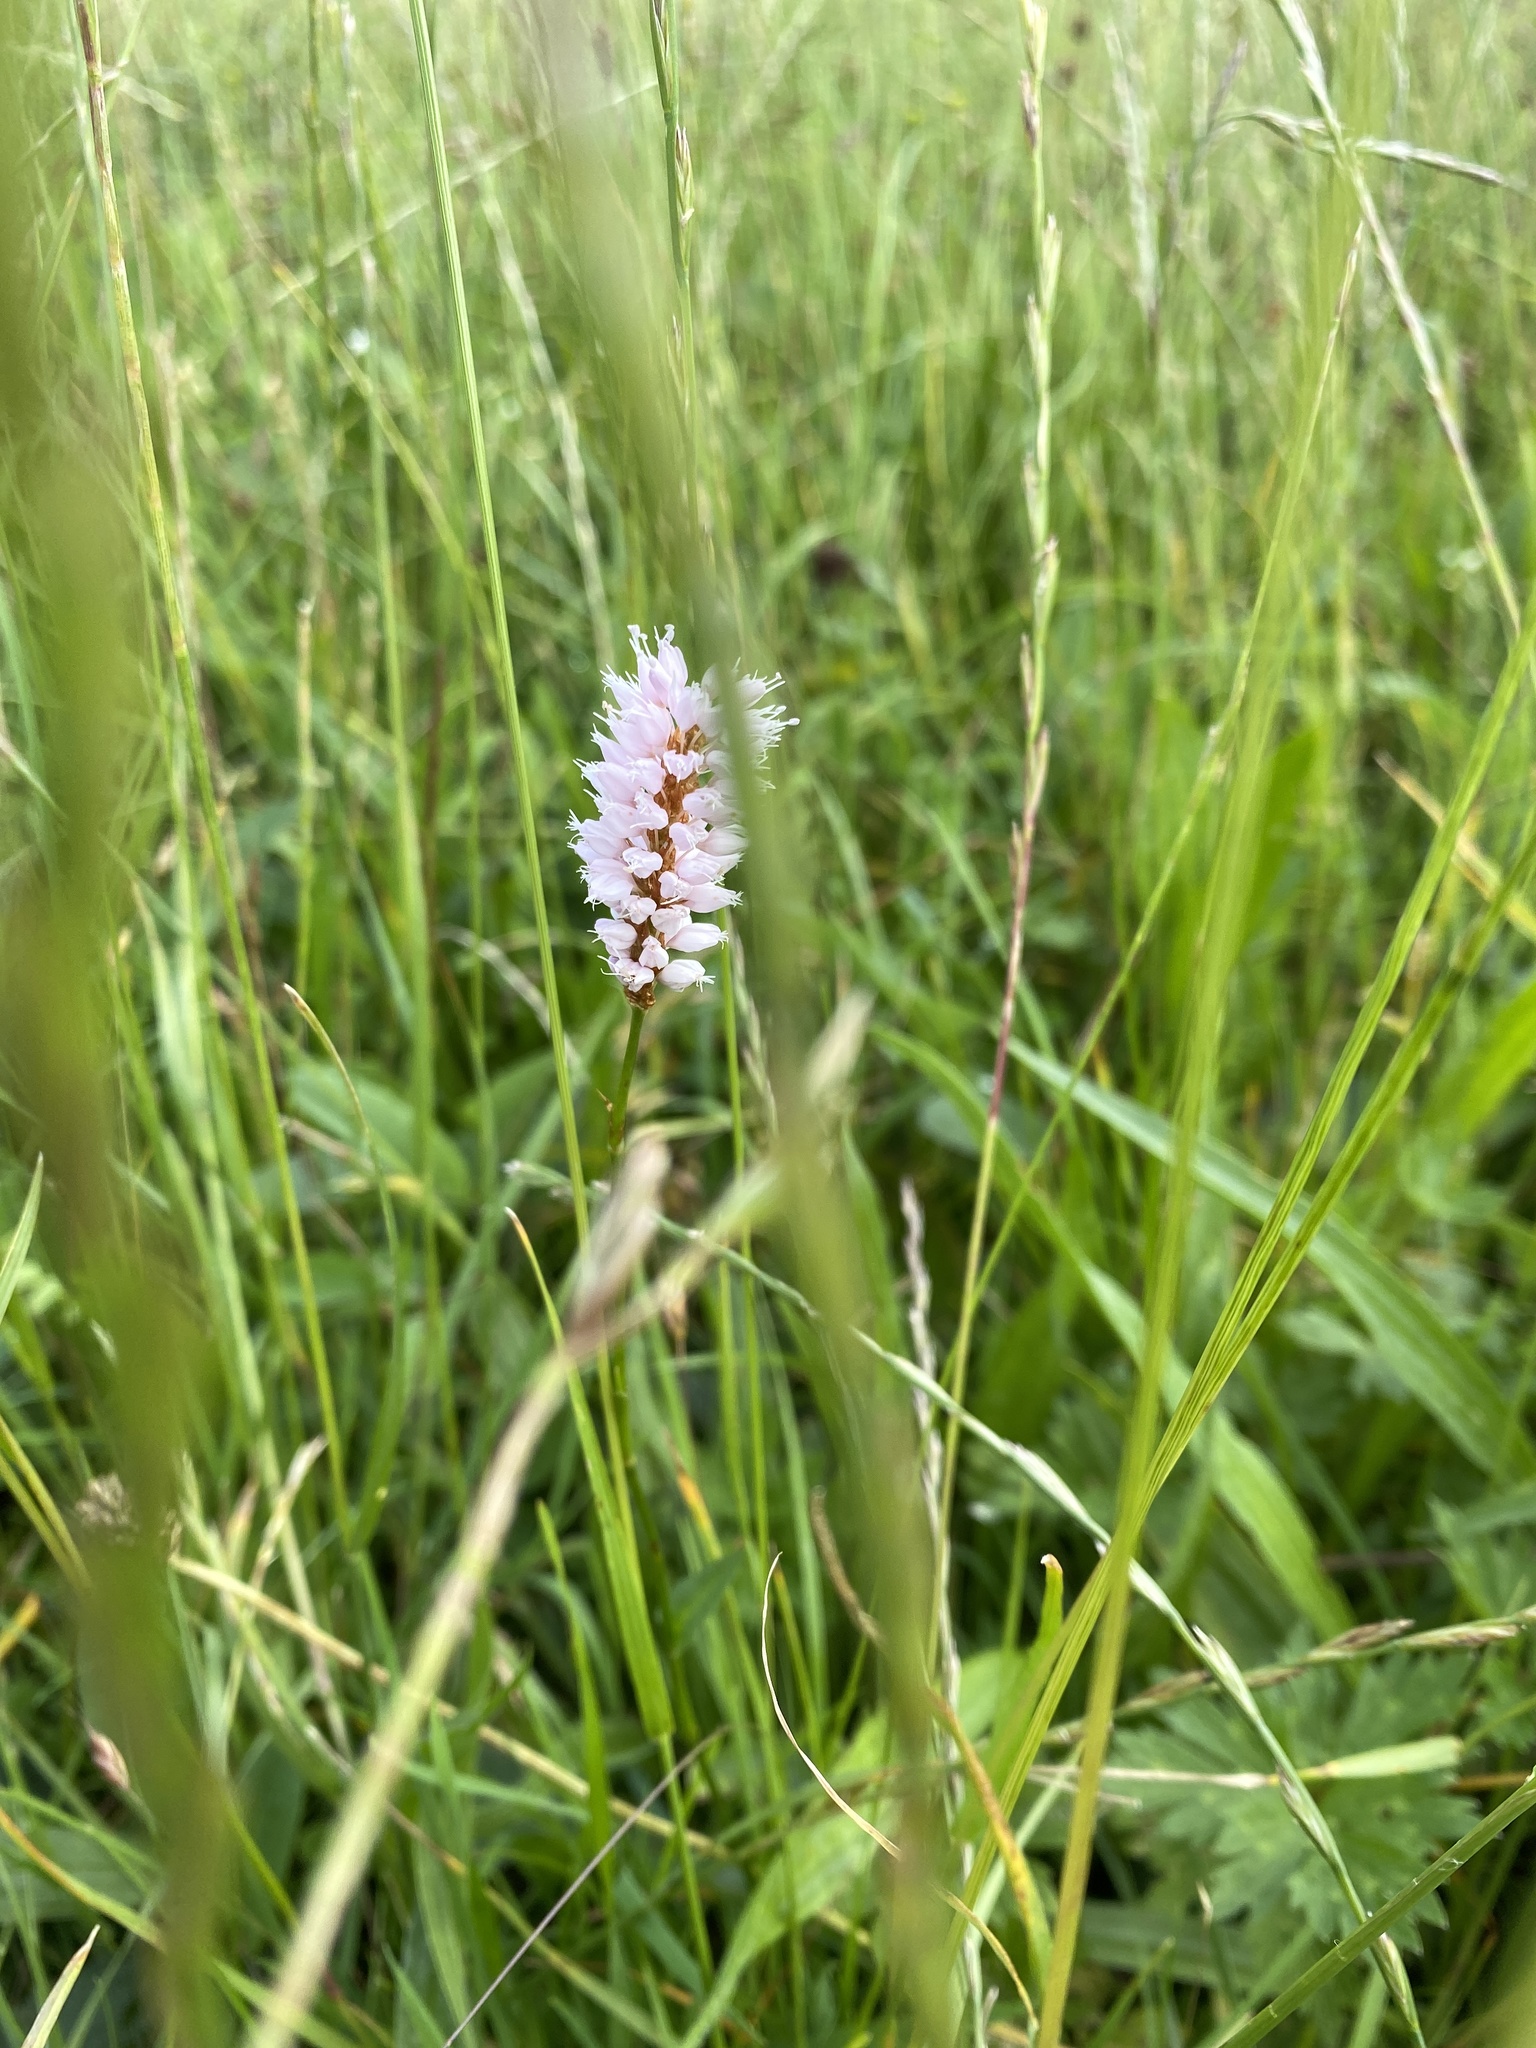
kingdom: Plantae
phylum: Tracheophyta
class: Magnoliopsida
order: Caryophyllales
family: Polygonaceae
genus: Bistorta
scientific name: Bistorta officinalis
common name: Common bistort
